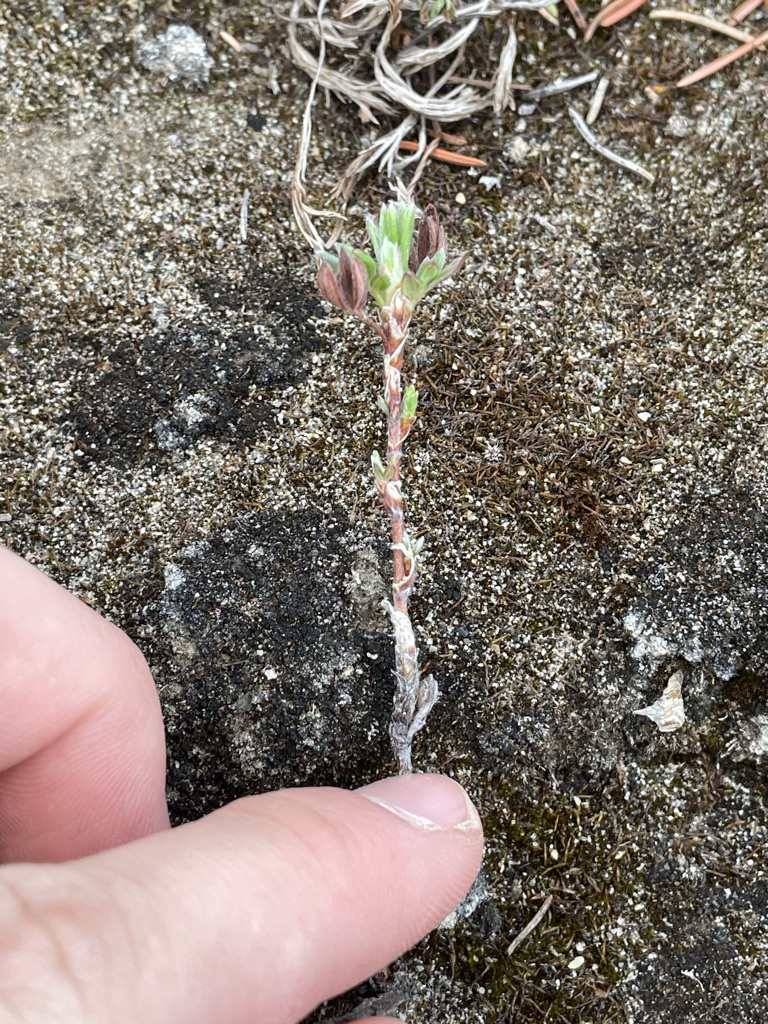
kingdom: Plantae
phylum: Tracheophyta
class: Magnoliopsida
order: Rosales
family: Rosaceae
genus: Dasiphora
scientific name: Dasiphora fruticosa
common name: Shrubby cinquefoil
